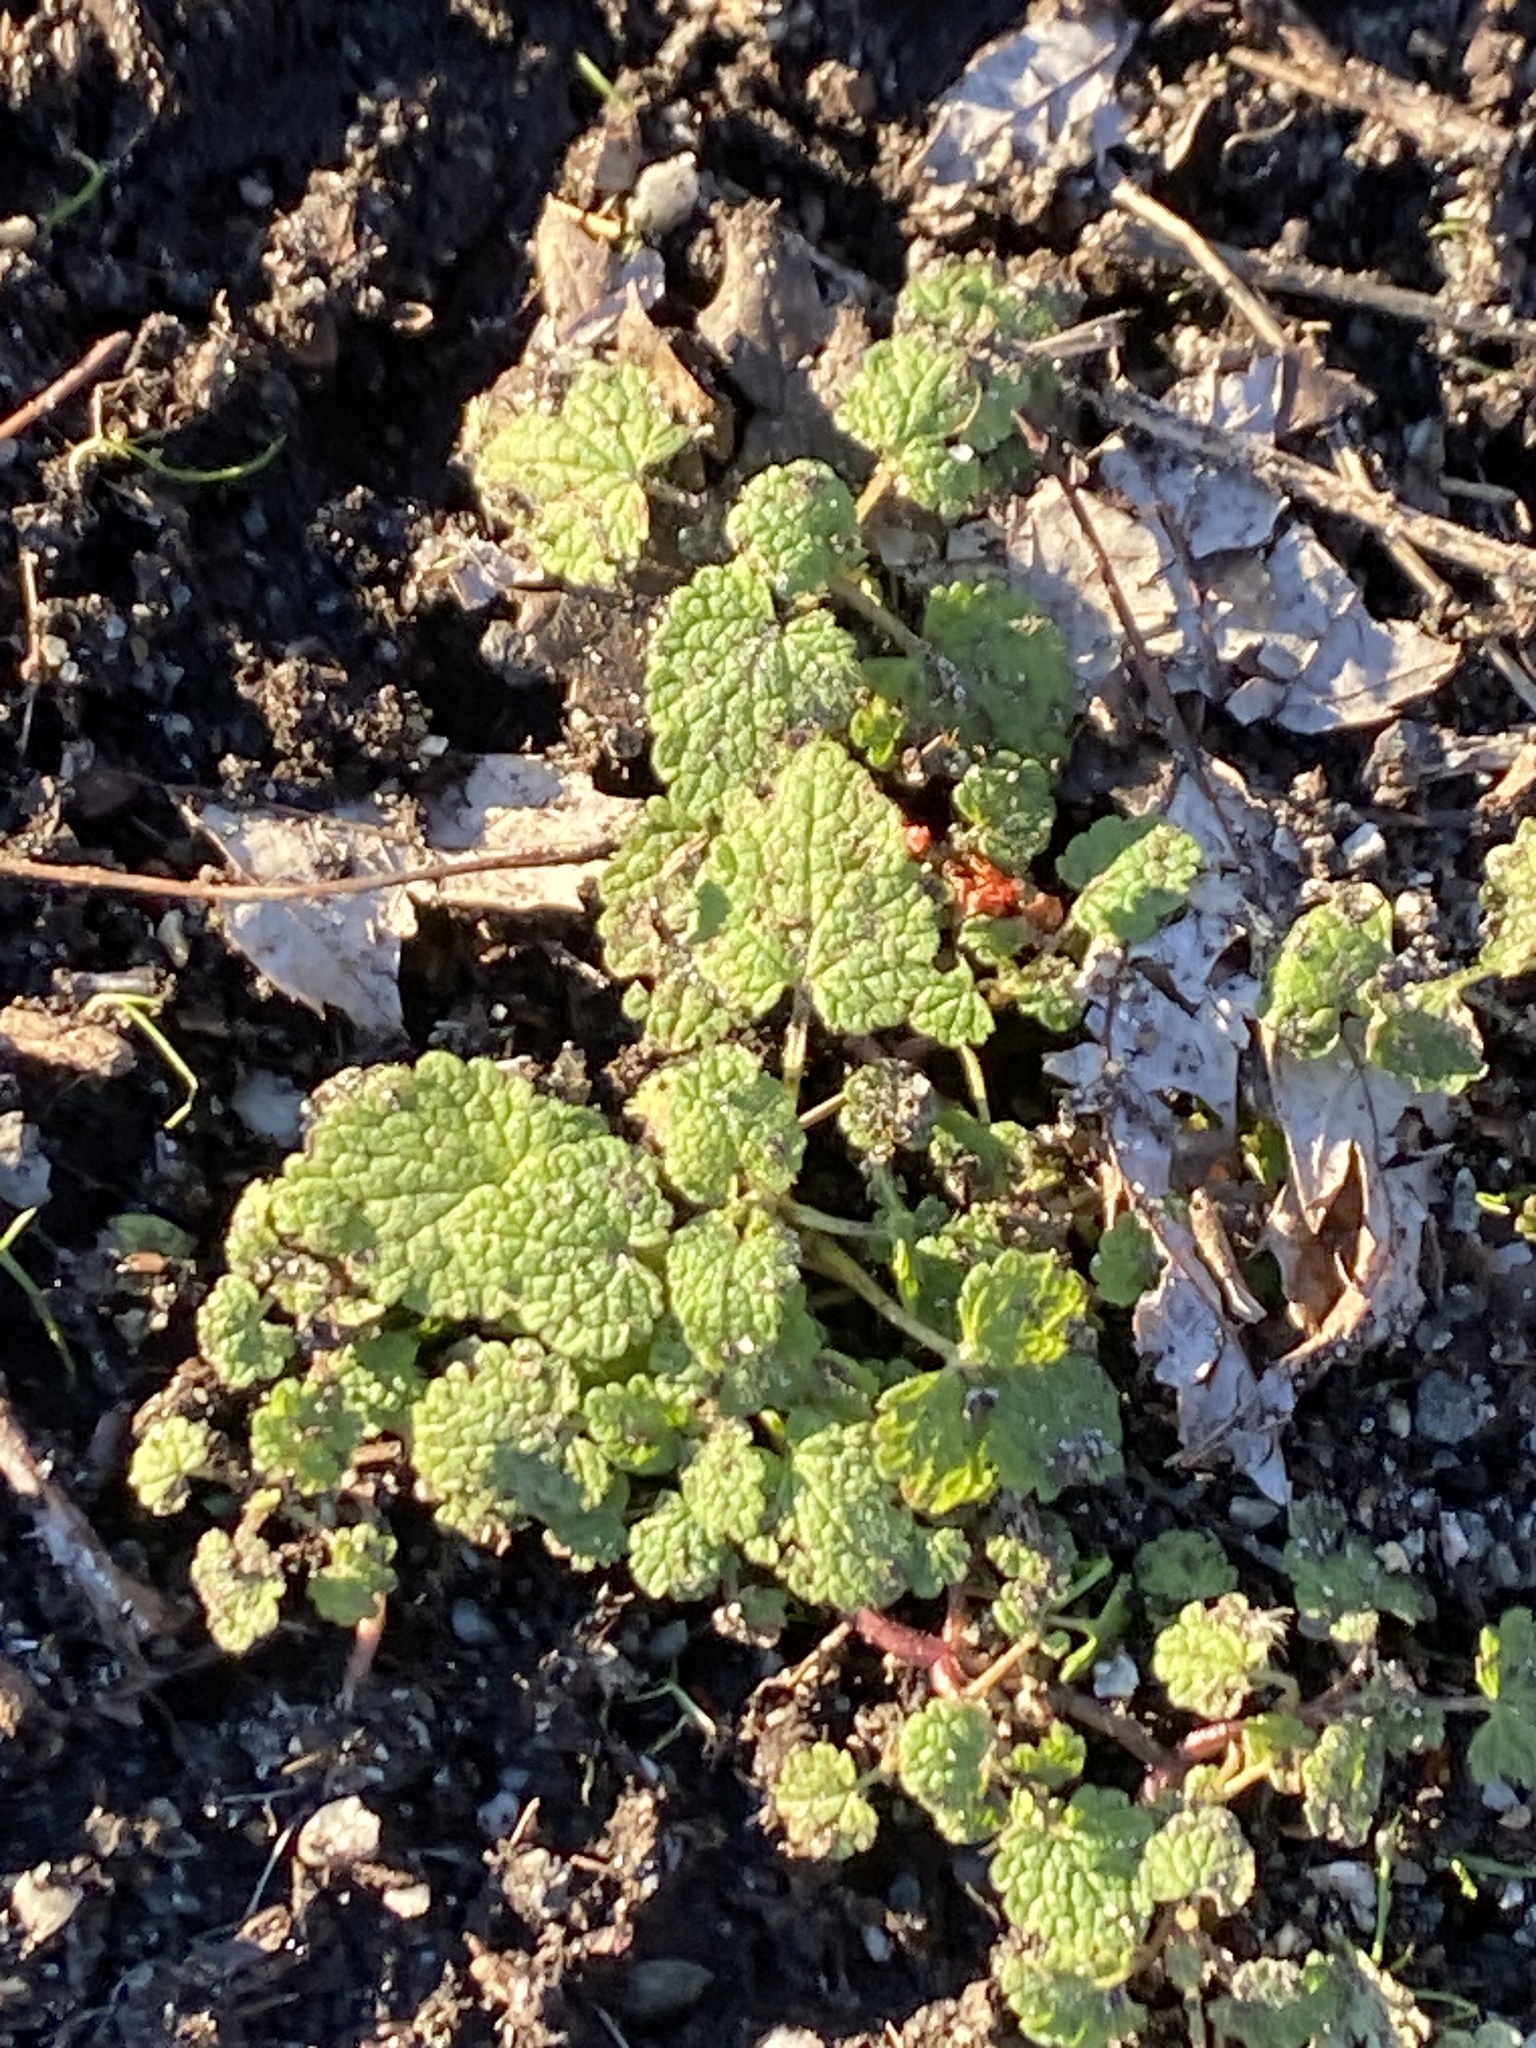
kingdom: Plantae
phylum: Tracheophyta
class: Magnoliopsida
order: Lamiales
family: Lamiaceae
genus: Lamium
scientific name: Lamium purpureum
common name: Red dead-nettle
